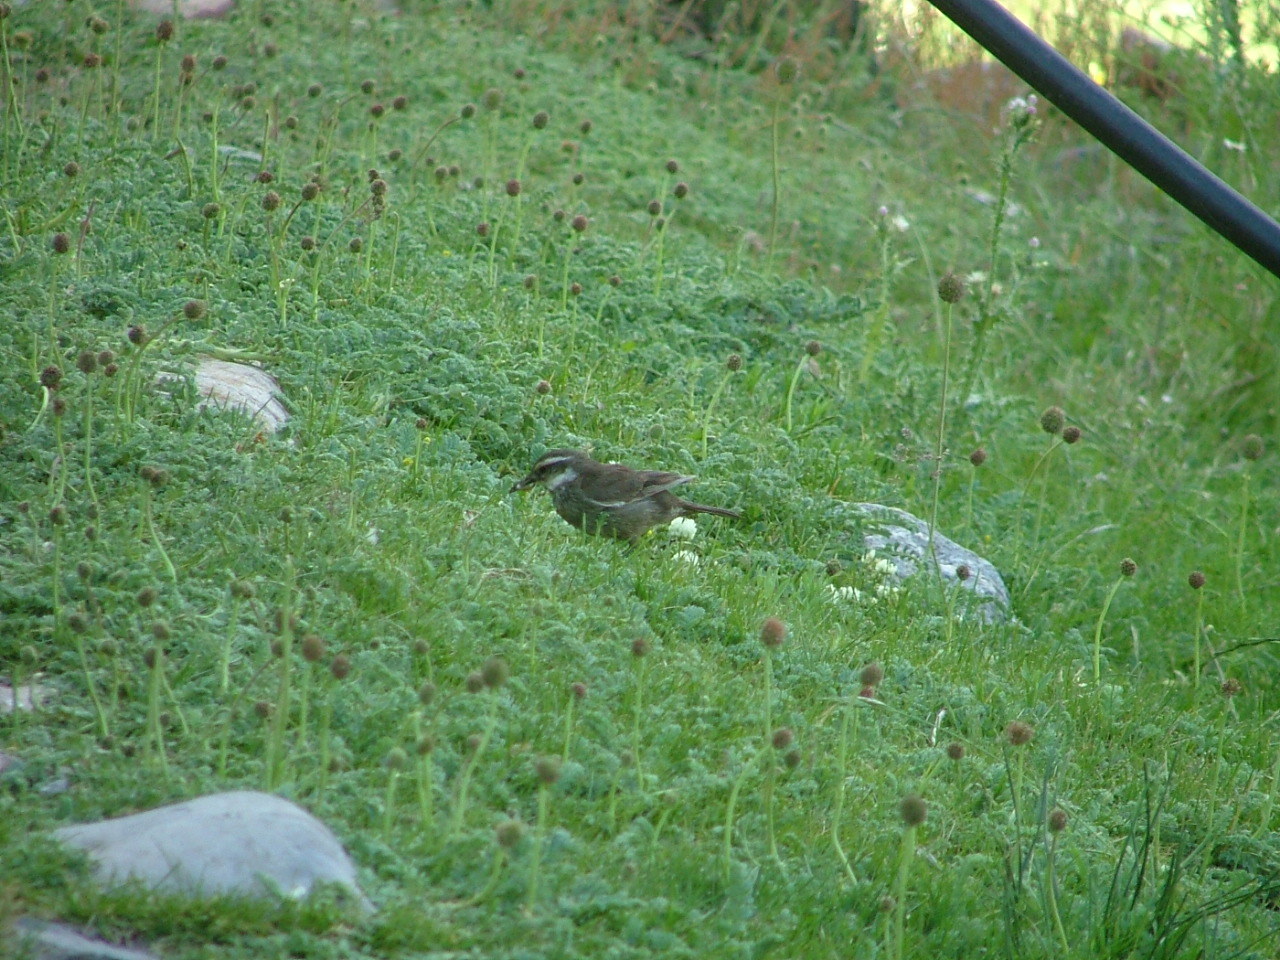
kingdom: Animalia
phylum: Chordata
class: Aves
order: Passeriformes
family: Furnariidae
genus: Cinclodes
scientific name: Cinclodes patagonicus
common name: Dark-bellied cinclodes
